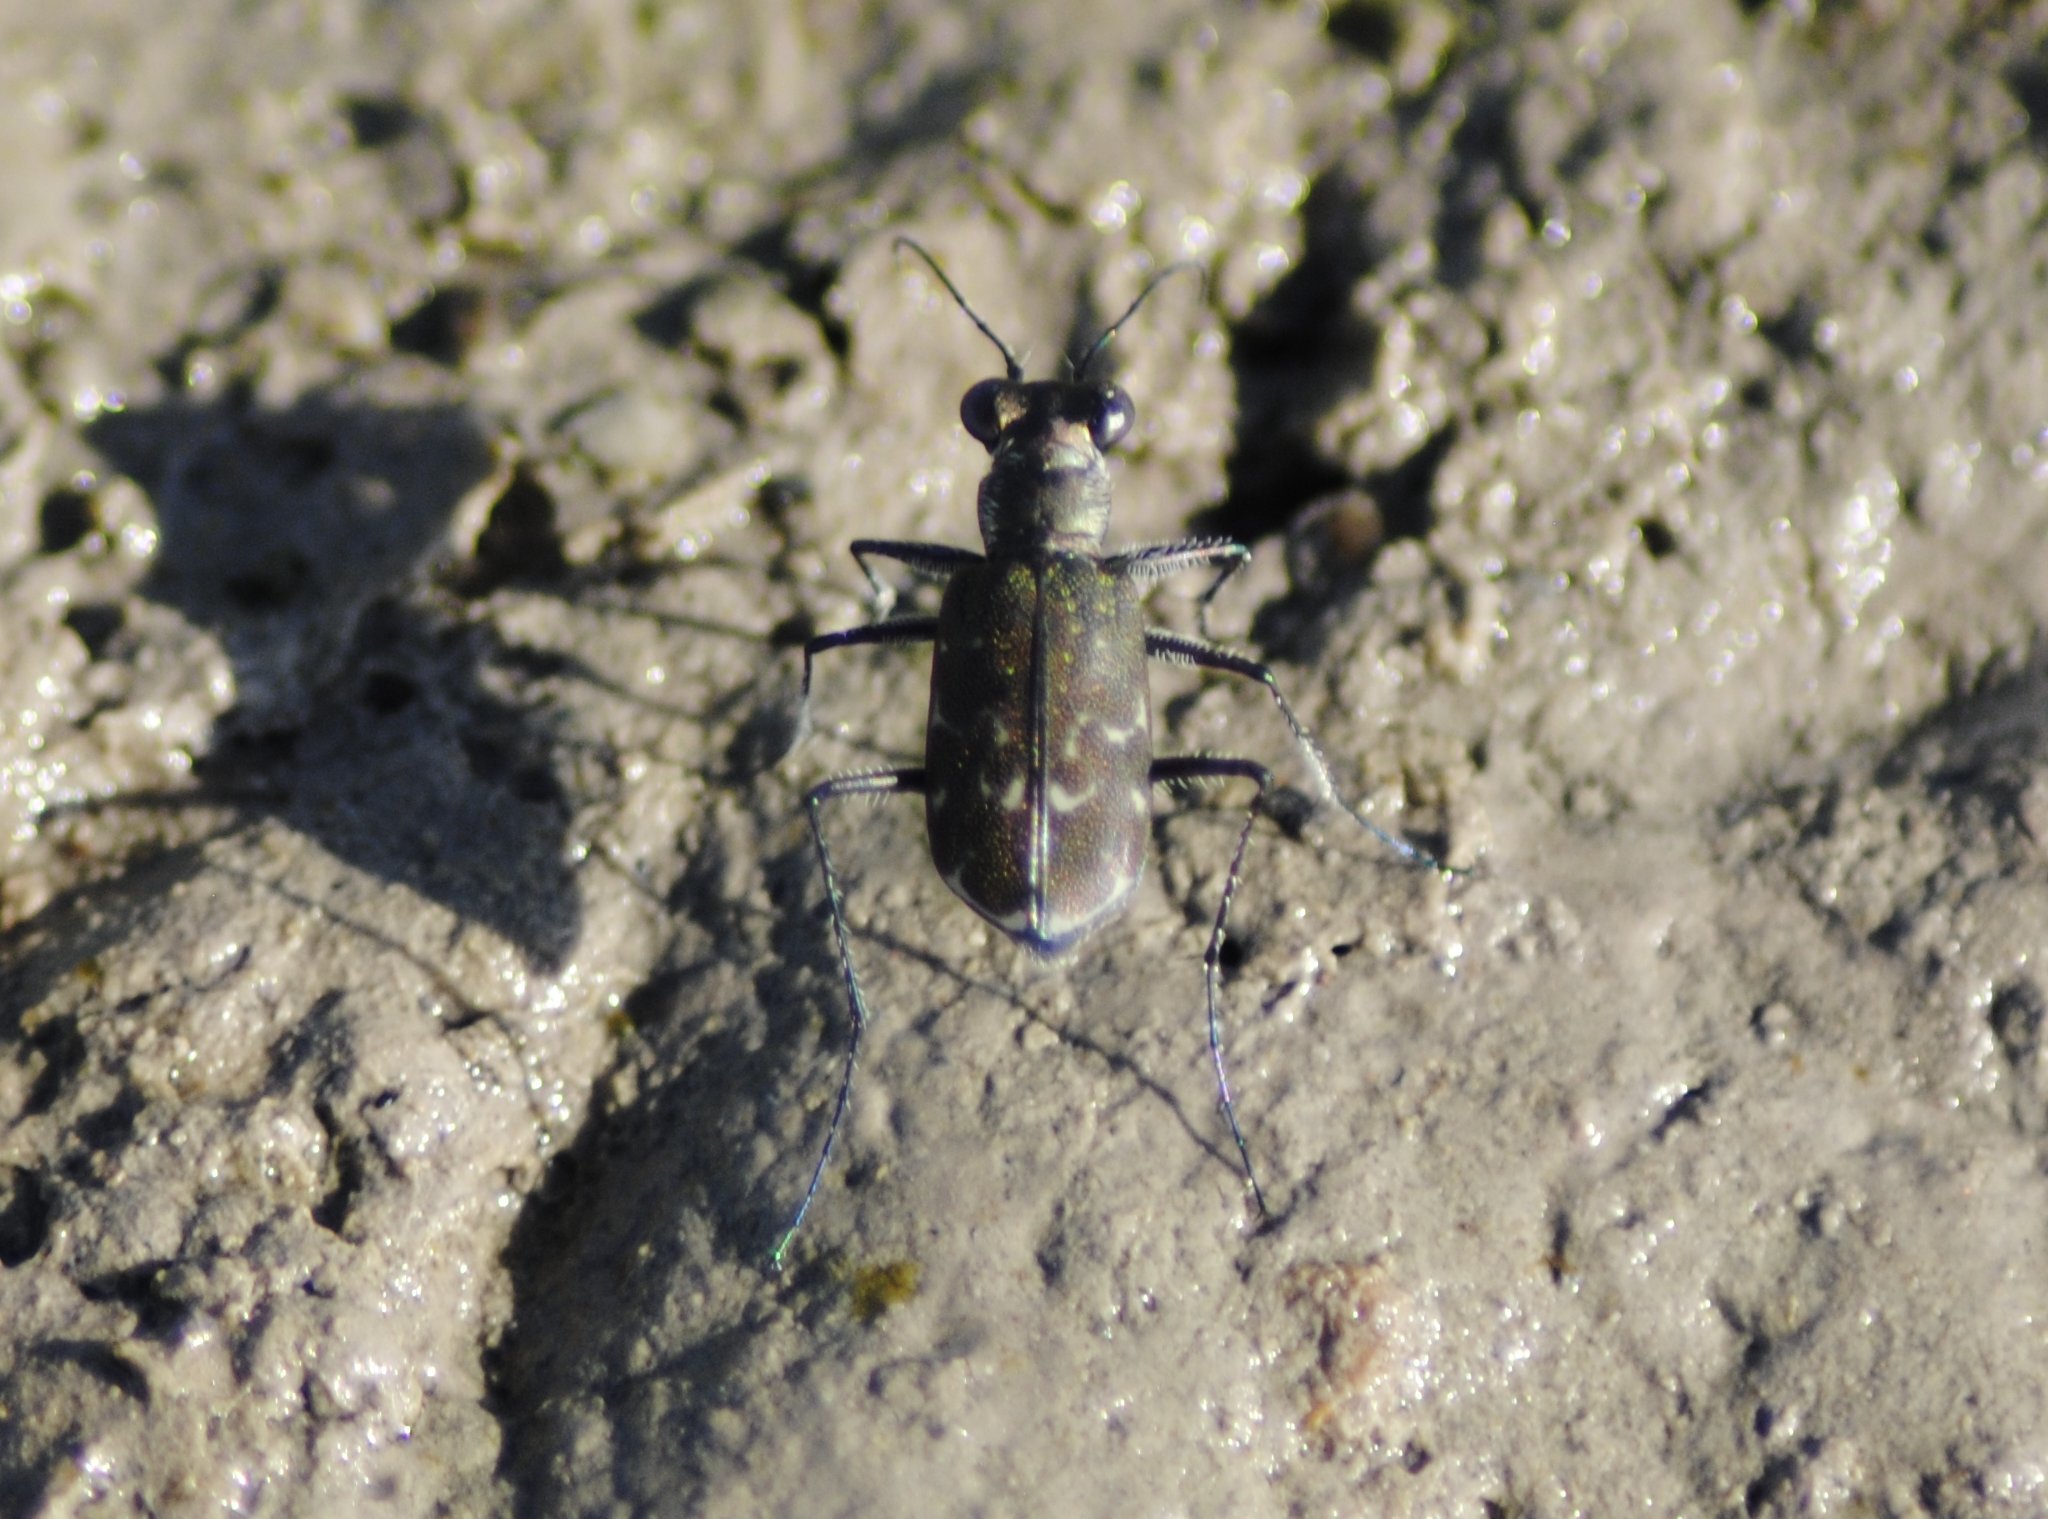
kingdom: Animalia
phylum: Arthropoda
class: Insecta
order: Coleoptera
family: Carabidae
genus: Cicindela
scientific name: Cicindela trifasciata
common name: Mudflat tiger beetle
